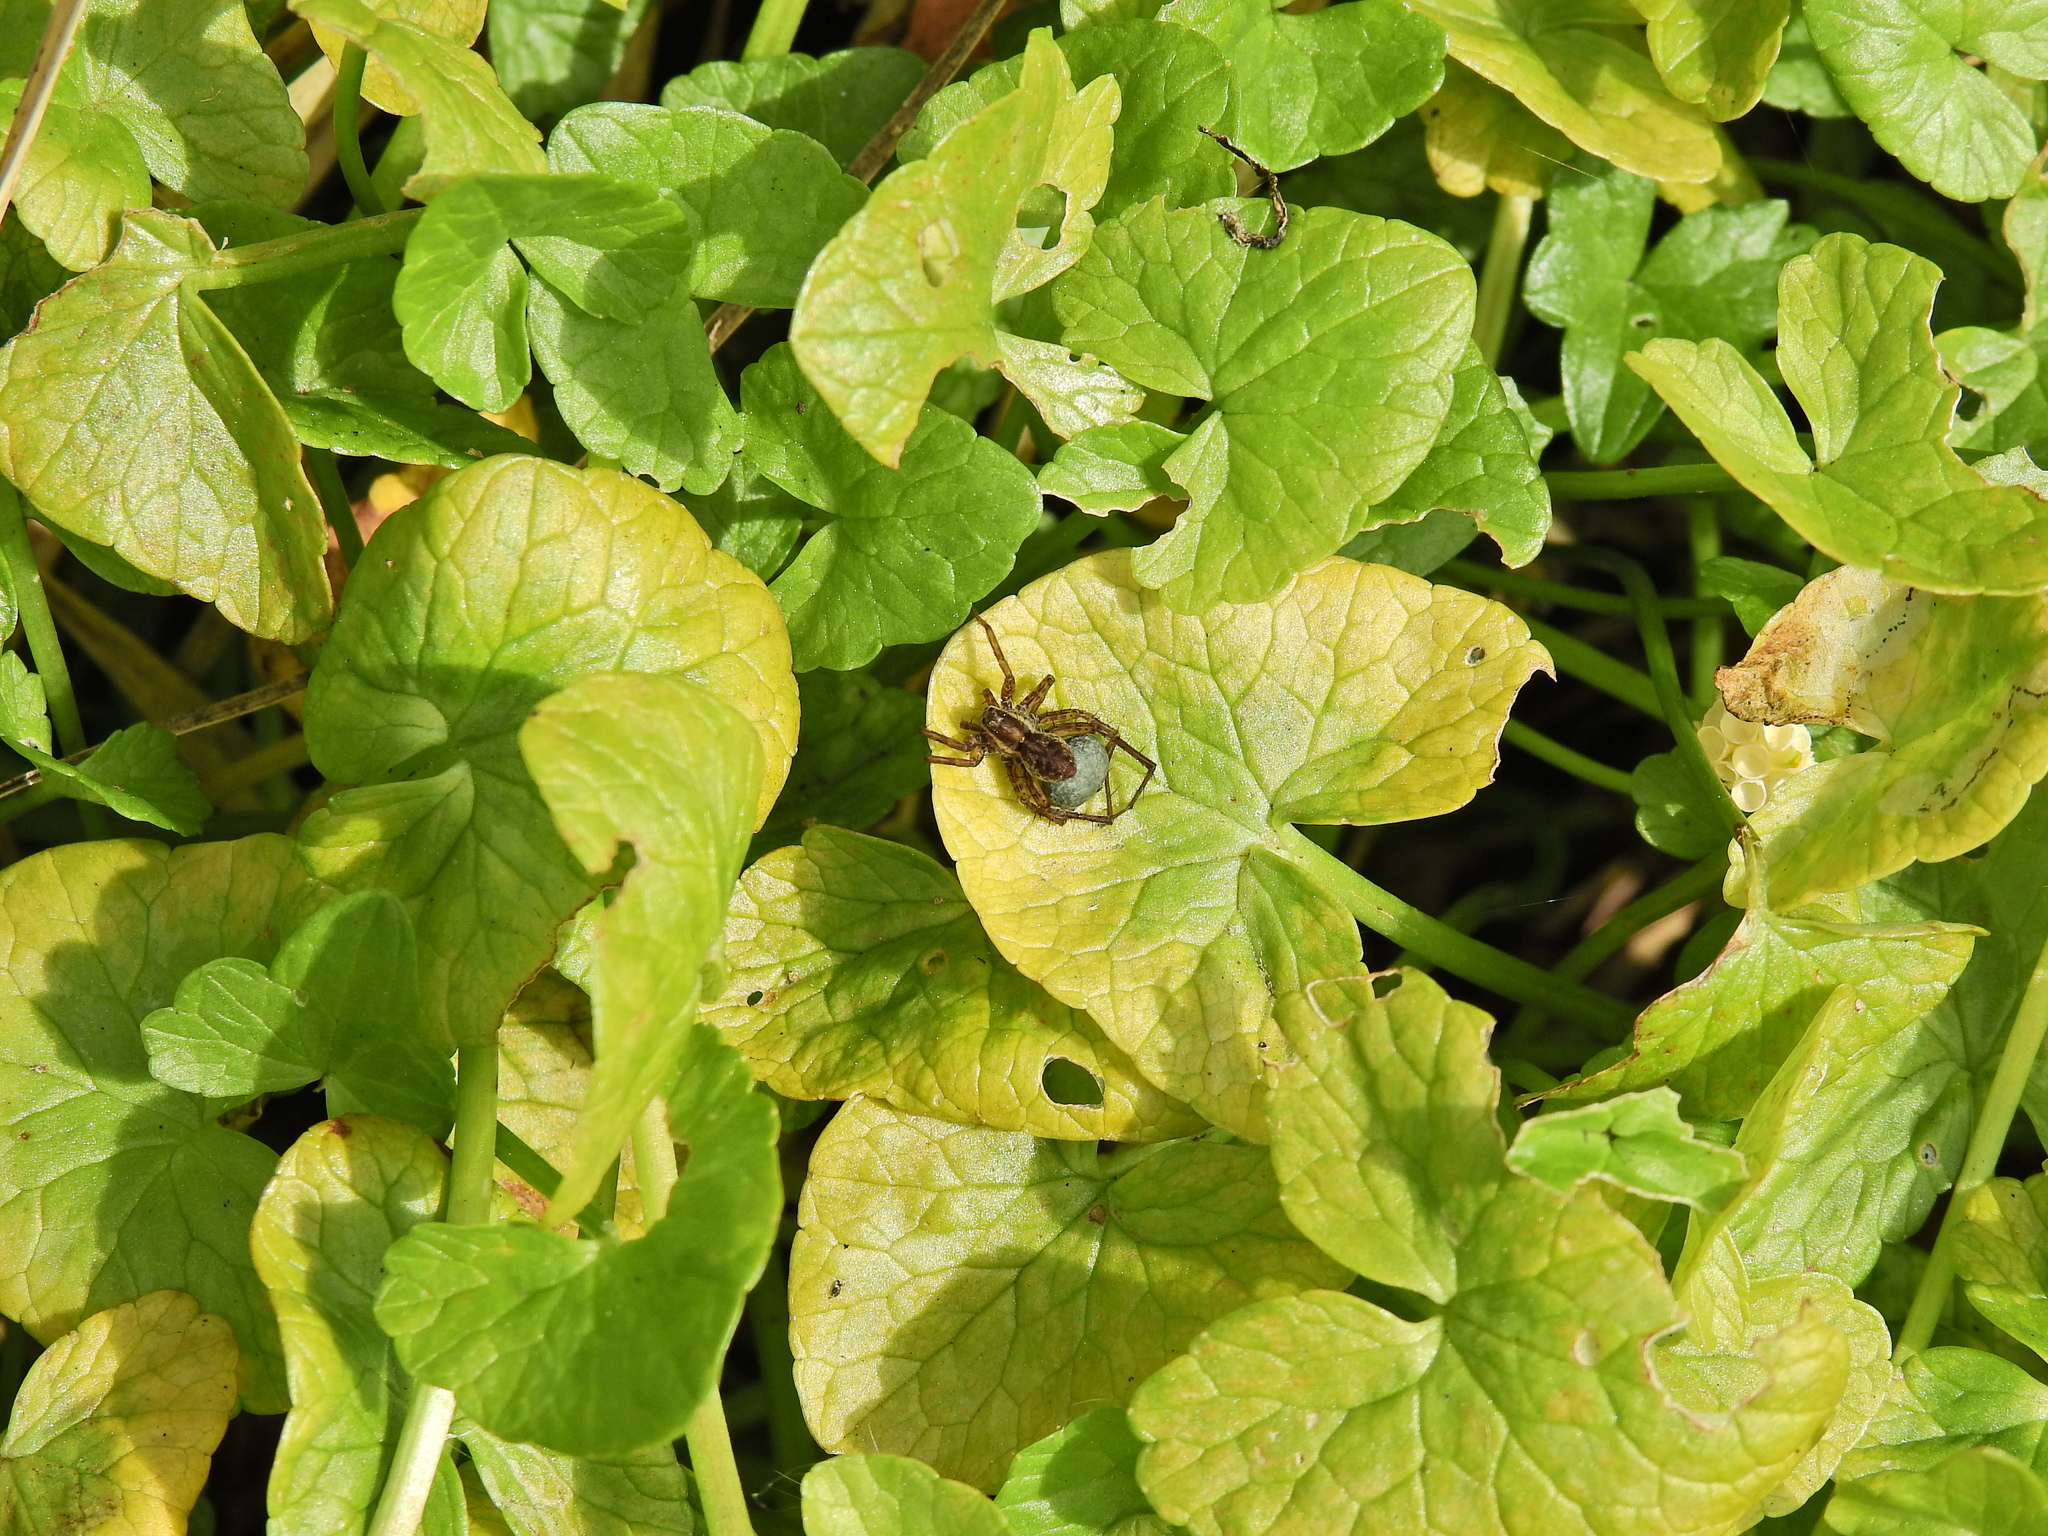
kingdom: Animalia
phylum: Arthropoda
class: Arachnida
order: Araneae
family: Lycosidae
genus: Pardosa
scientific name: Pardosa nigriceps
